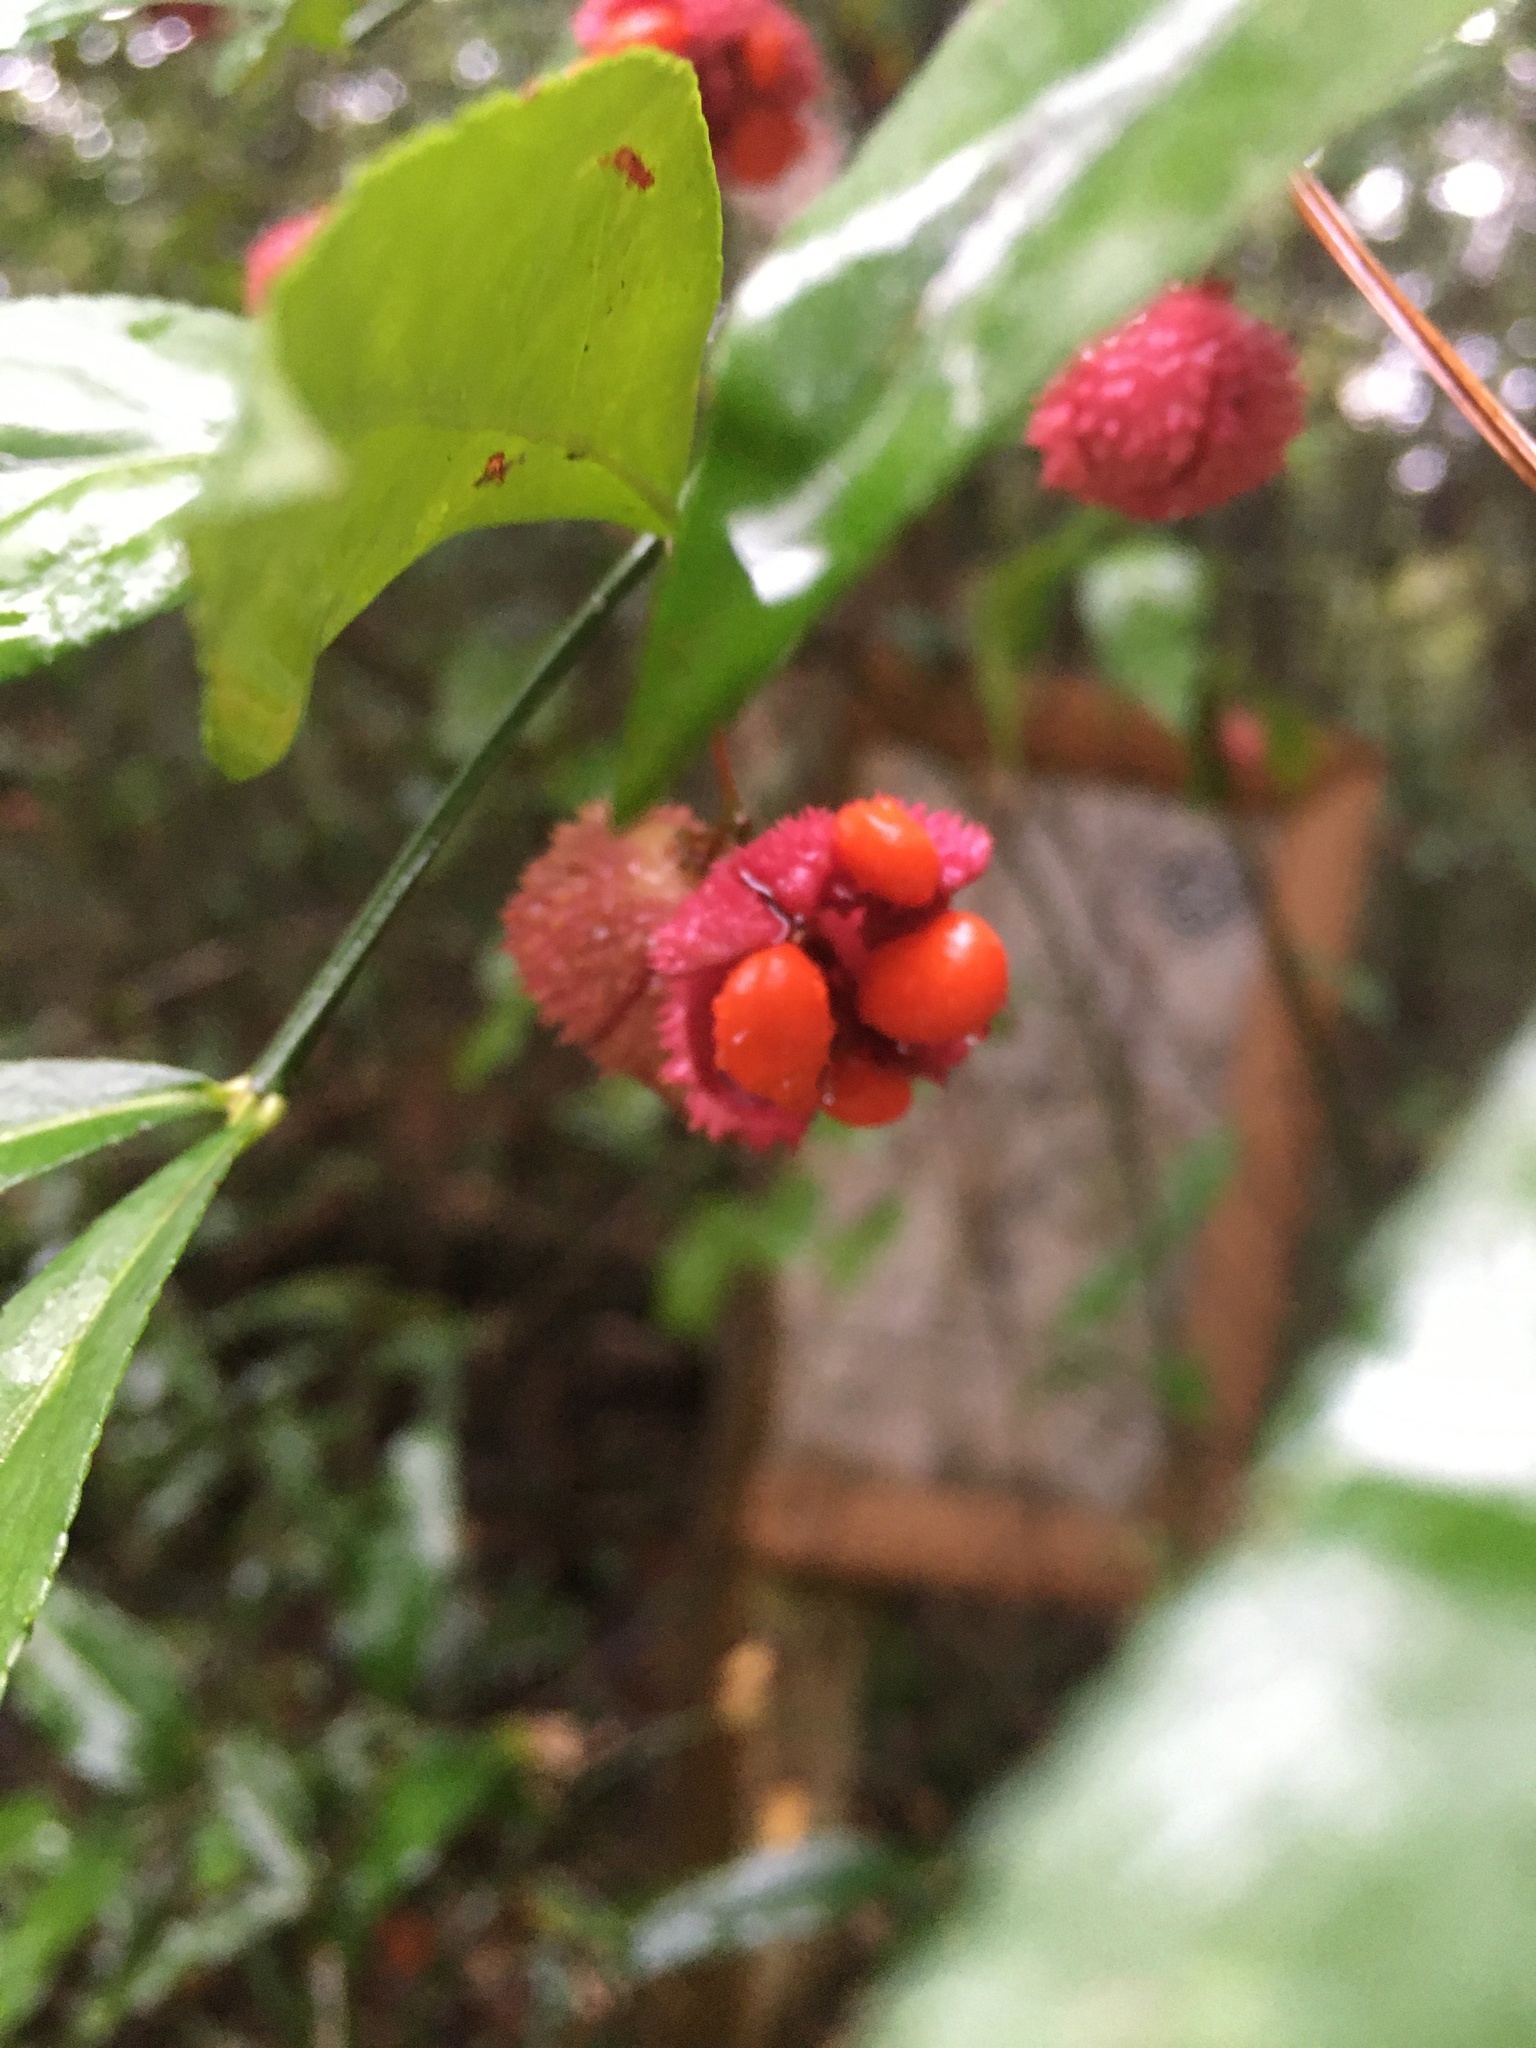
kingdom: Plantae
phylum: Tracheophyta
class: Magnoliopsida
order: Celastrales
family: Celastraceae
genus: Euonymus
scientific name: Euonymus americanus
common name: Bursting-heart
